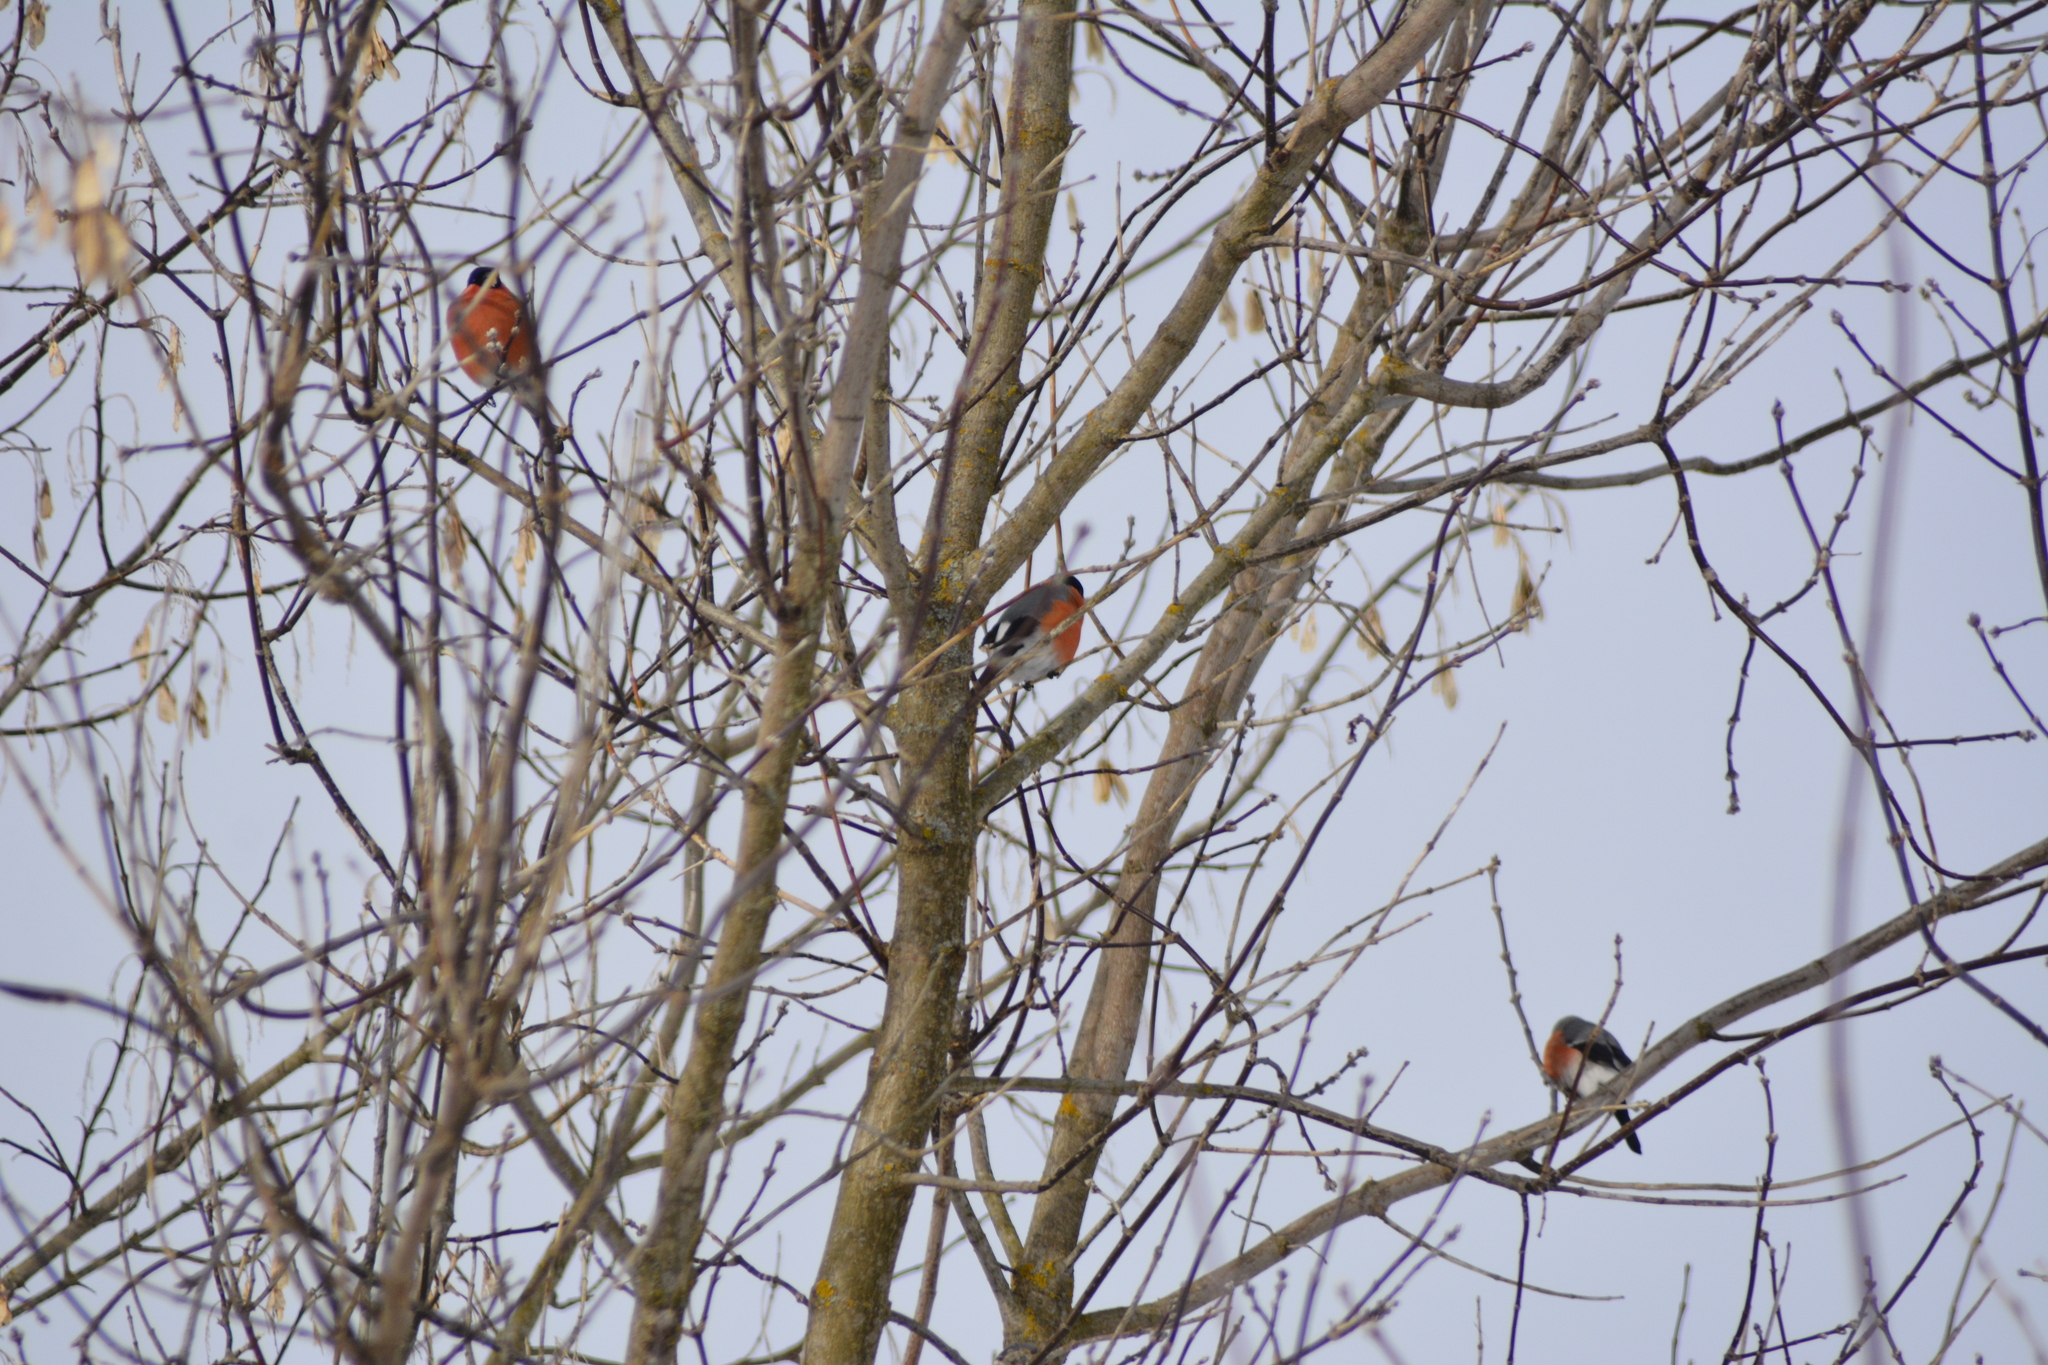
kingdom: Animalia
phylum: Chordata
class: Aves
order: Passeriformes
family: Fringillidae
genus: Pyrrhula
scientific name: Pyrrhula pyrrhula
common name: Eurasian bullfinch
